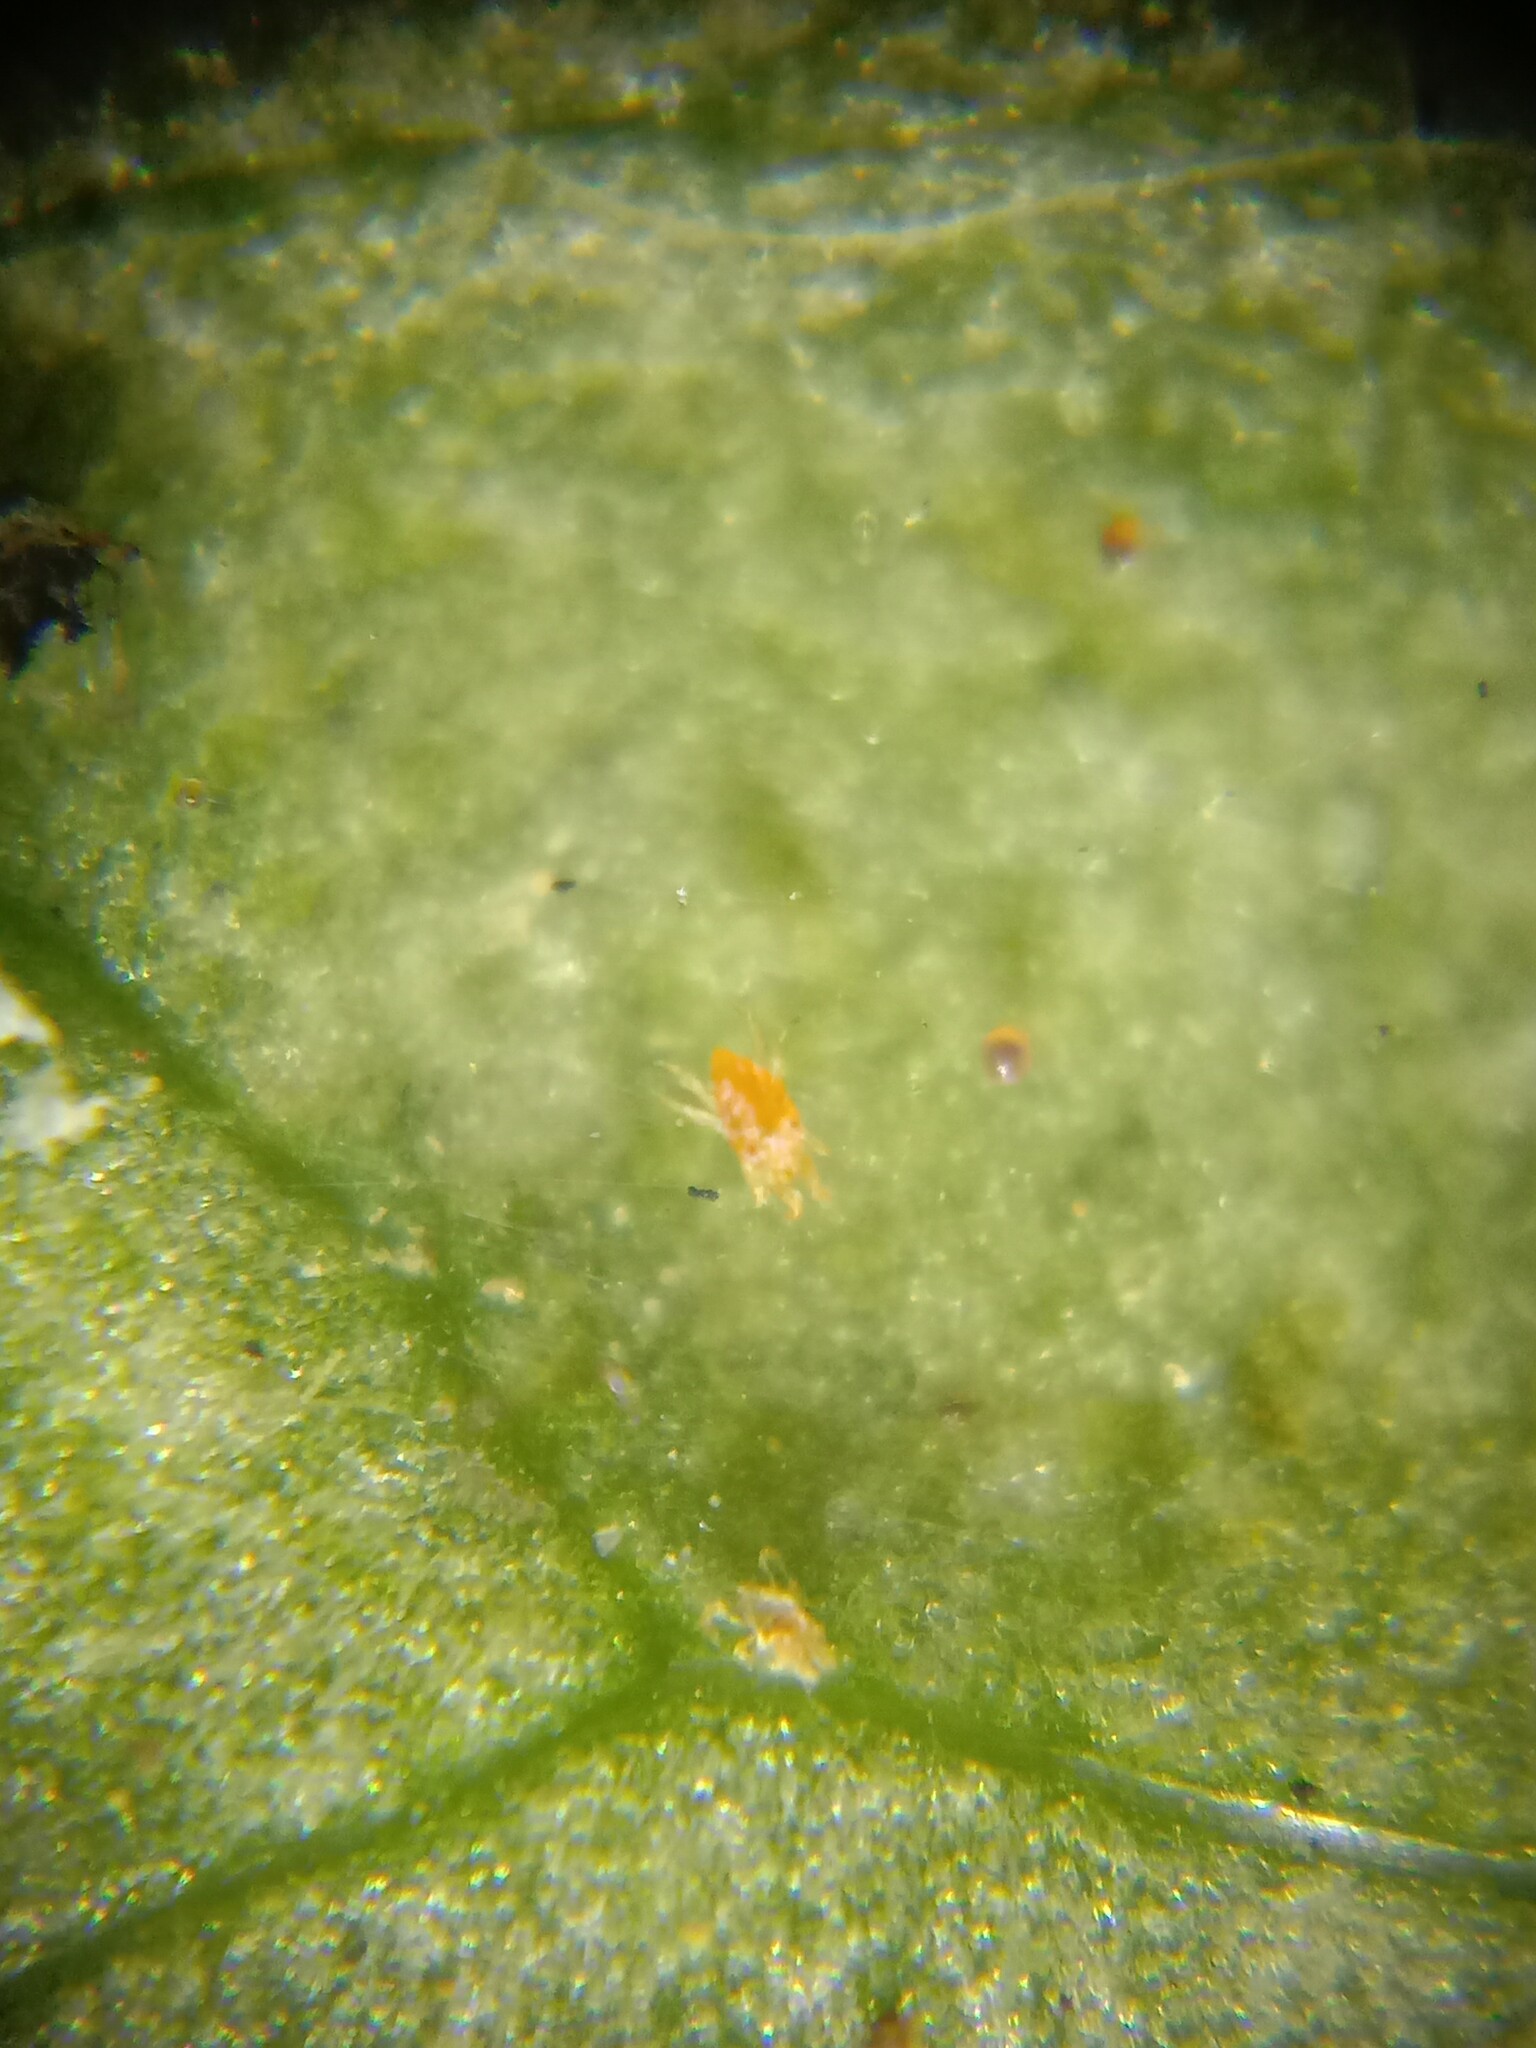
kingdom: Animalia
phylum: Arthropoda
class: Arachnida
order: Trombidiformes
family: Tetranychidae
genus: Tetranychus
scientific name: Tetranychus urticae
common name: Carmine spider mite
